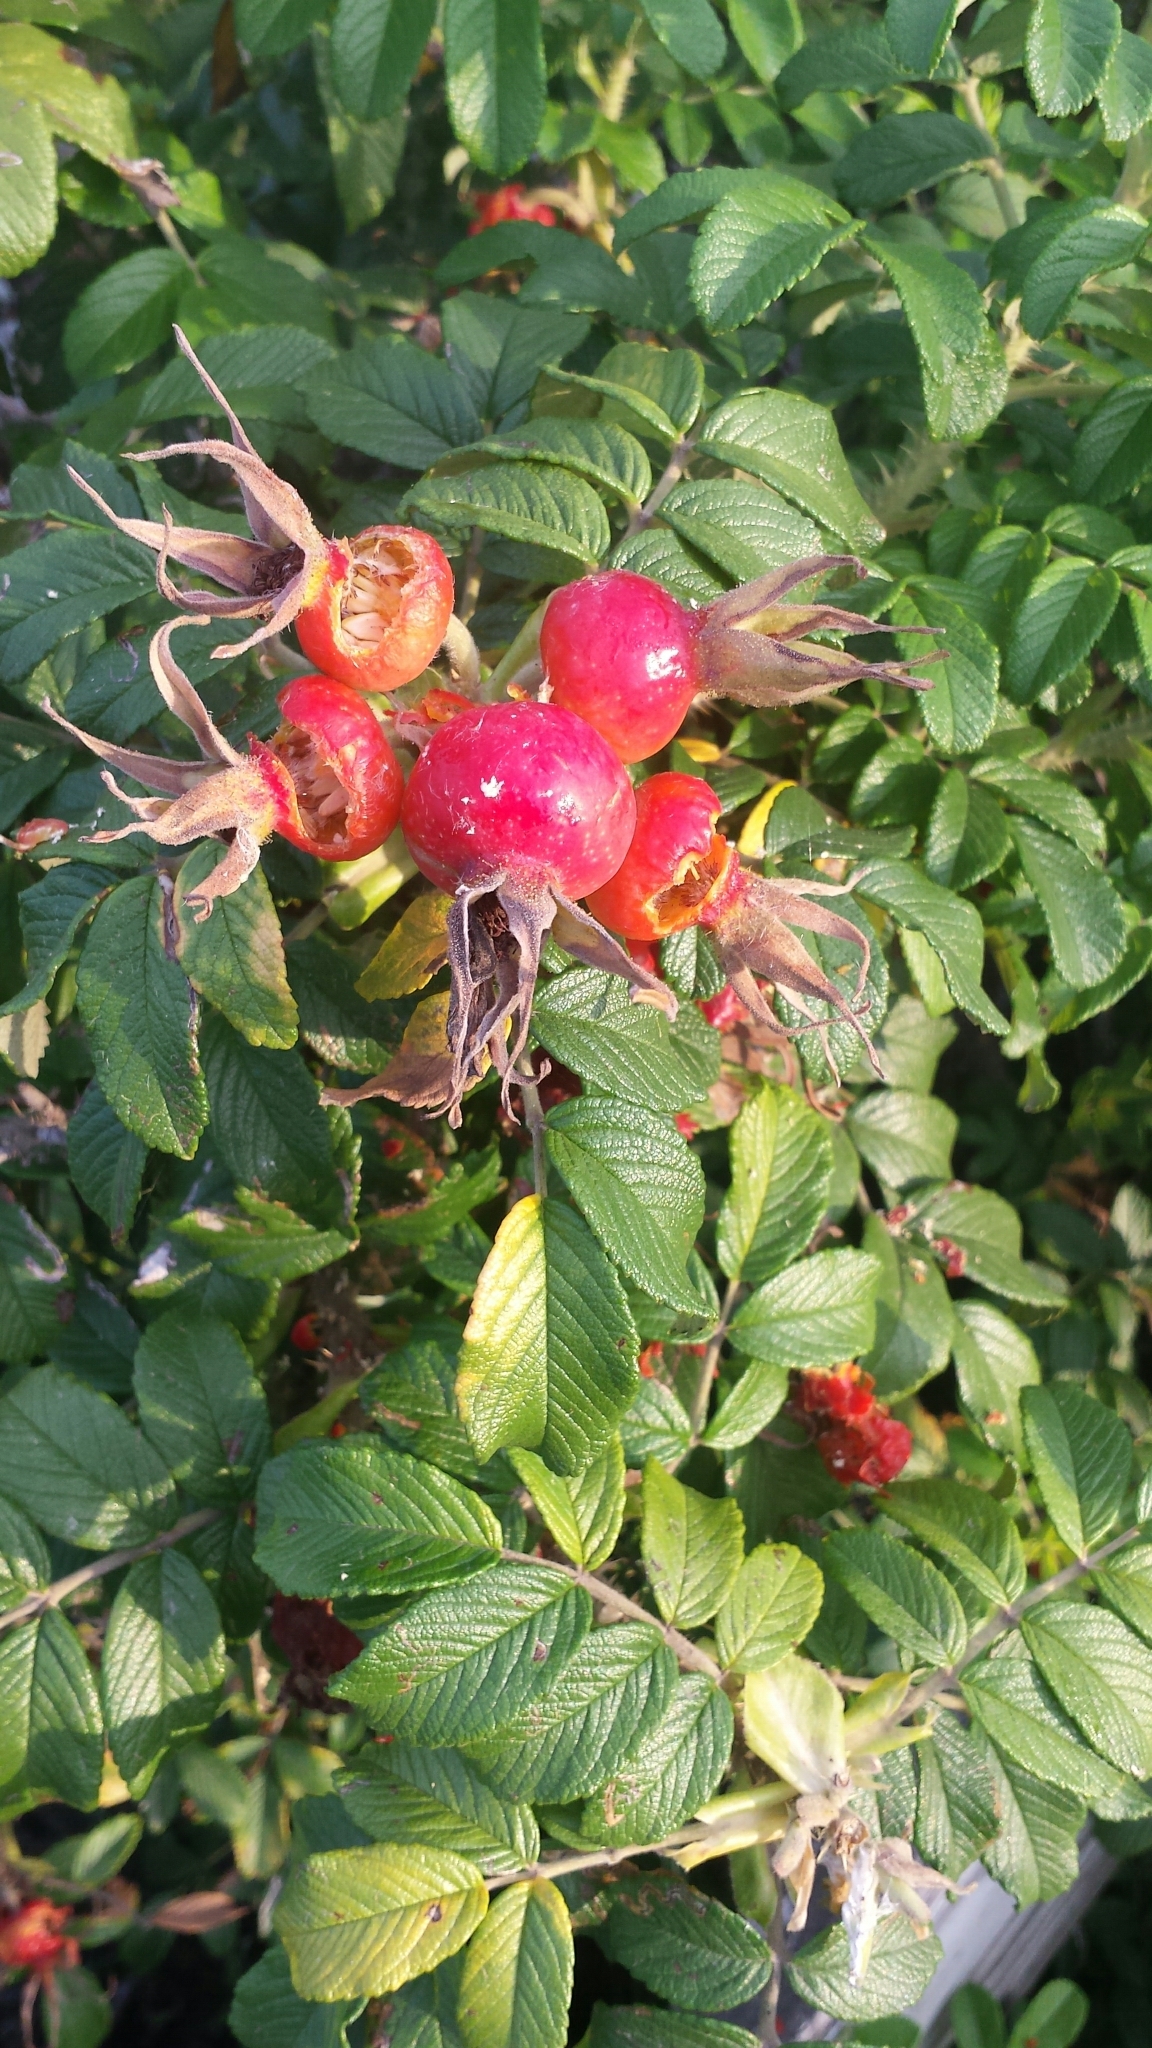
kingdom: Plantae
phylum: Tracheophyta
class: Magnoliopsida
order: Rosales
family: Rosaceae
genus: Rosa
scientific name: Rosa rugosa
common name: Japanese rose
